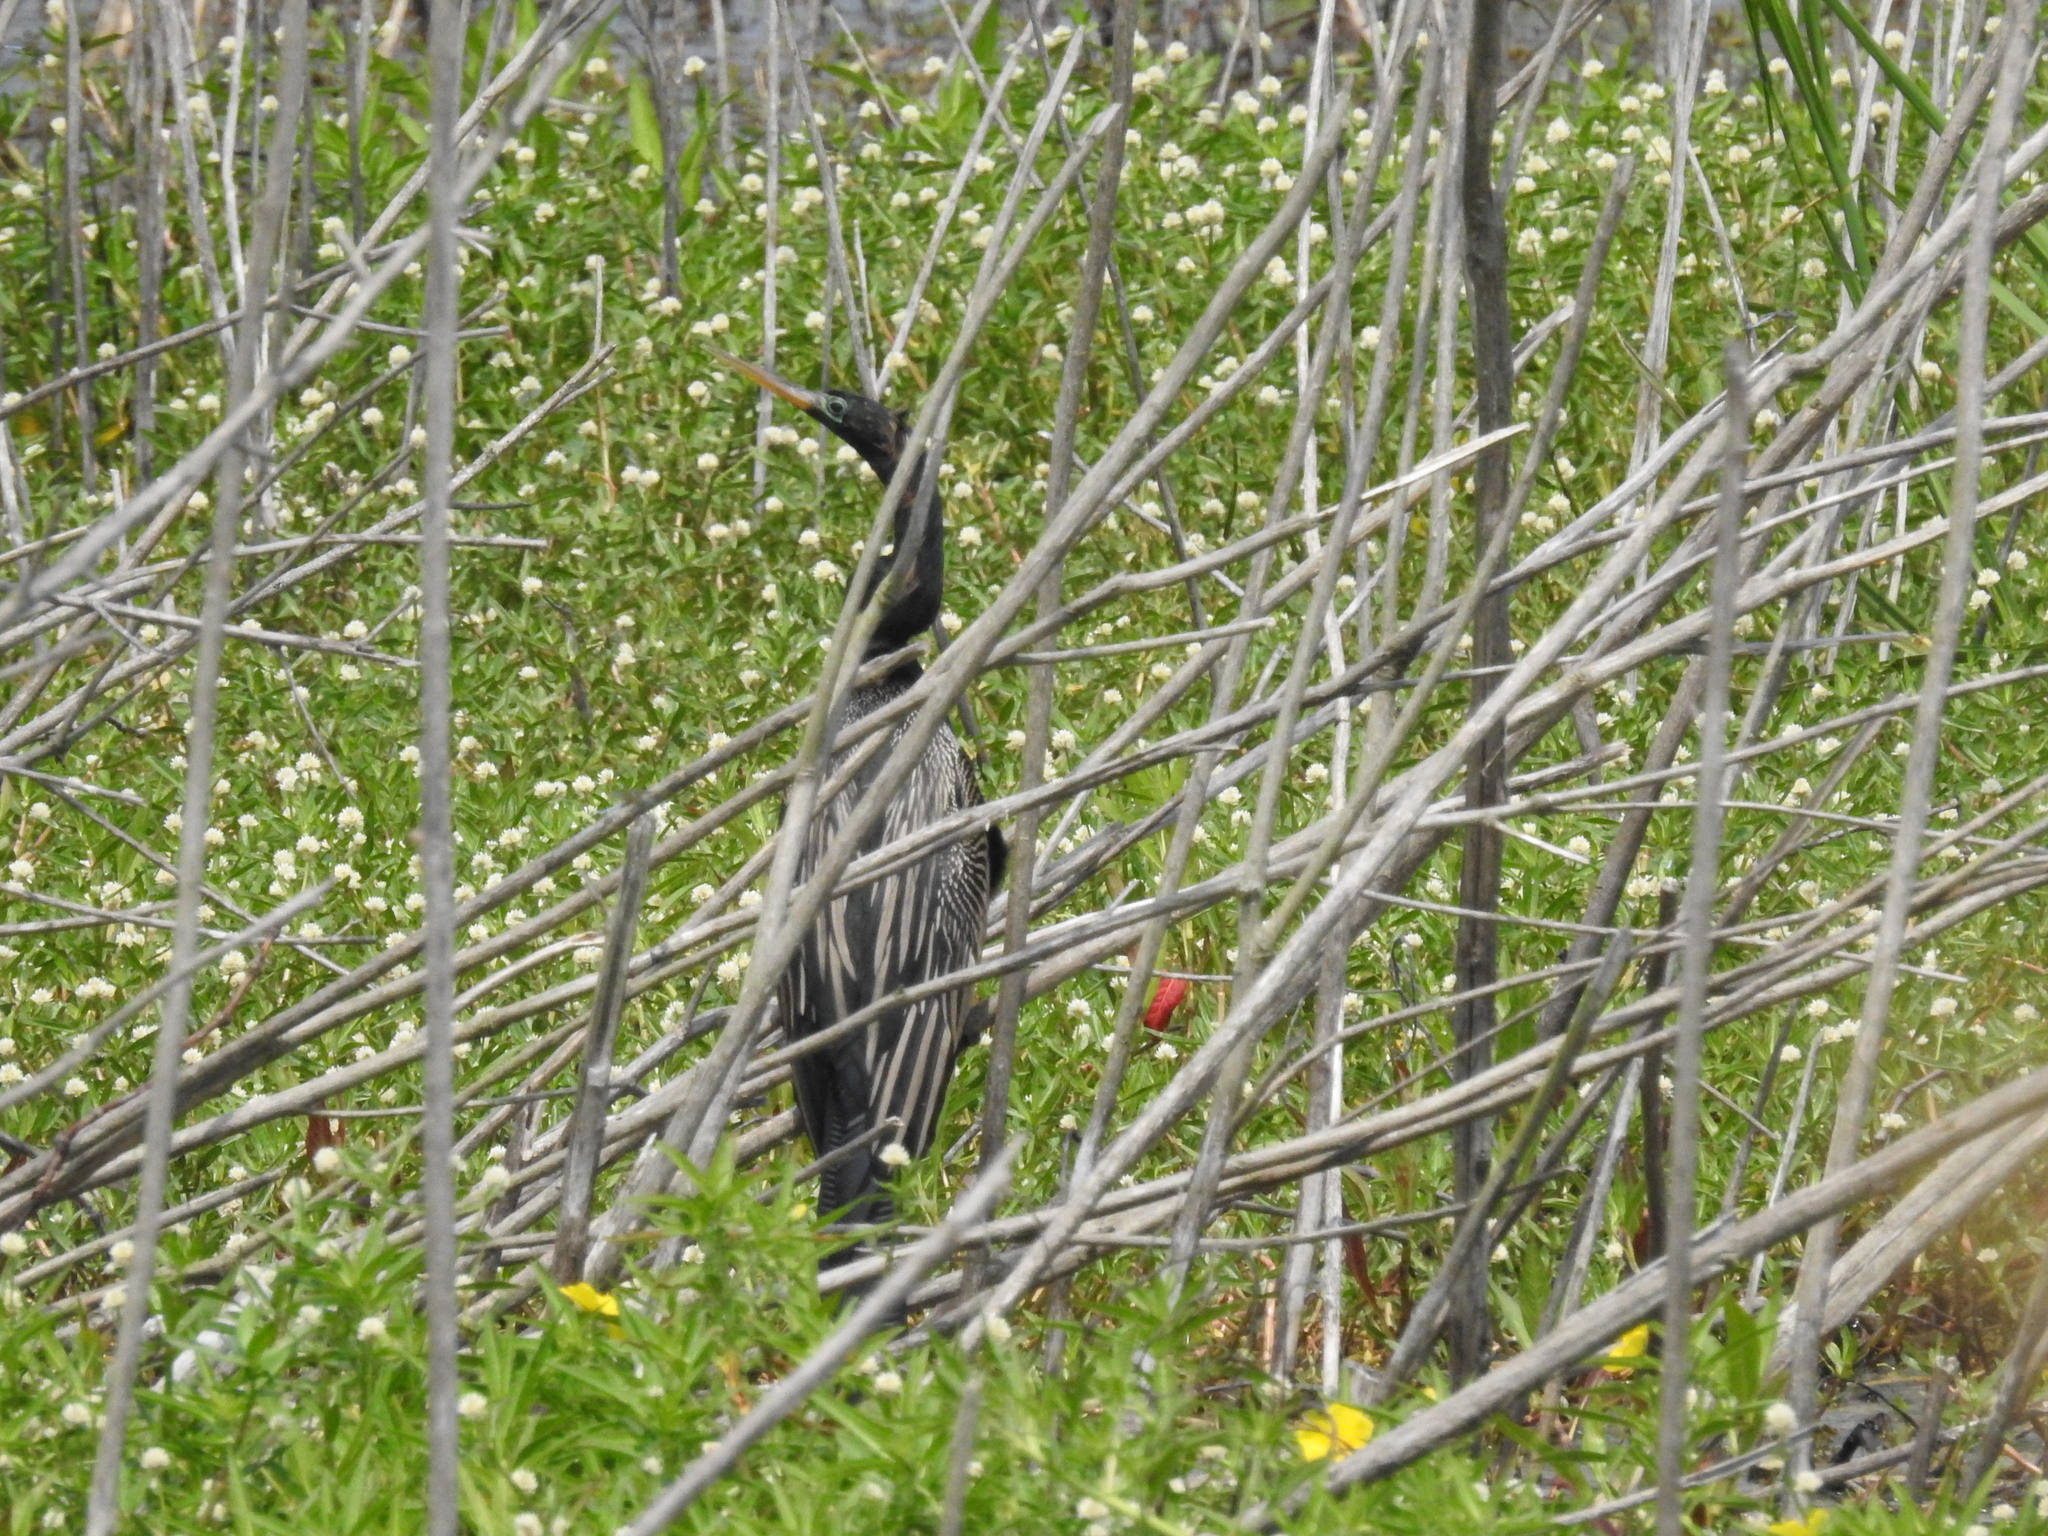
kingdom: Animalia
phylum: Chordata
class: Aves
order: Suliformes
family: Anhingidae
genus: Anhinga
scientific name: Anhinga anhinga
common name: Anhinga
